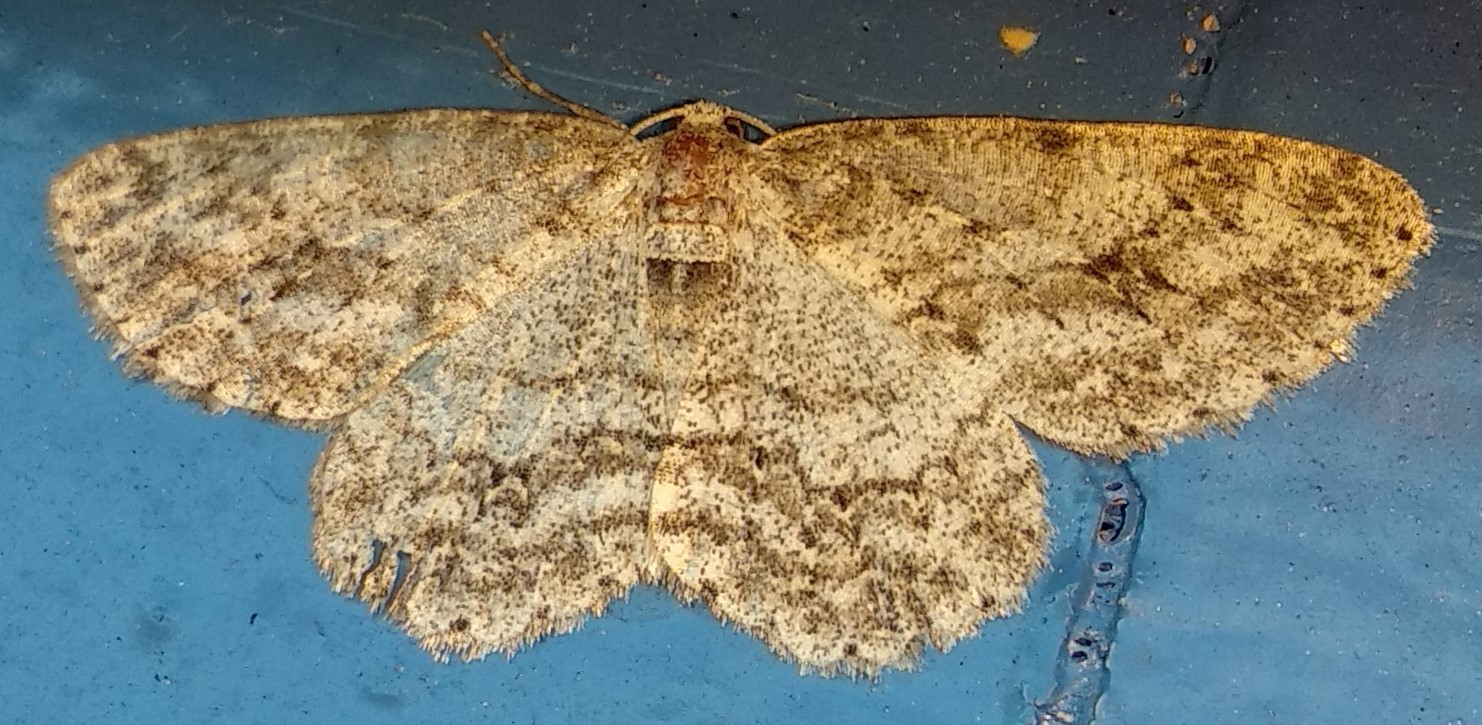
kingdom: Animalia
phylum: Arthropoda
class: Insecta
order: Lepidoptera
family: Geometridae
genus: Ectropis
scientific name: Ectropis crepuscularia
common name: Engrailed
